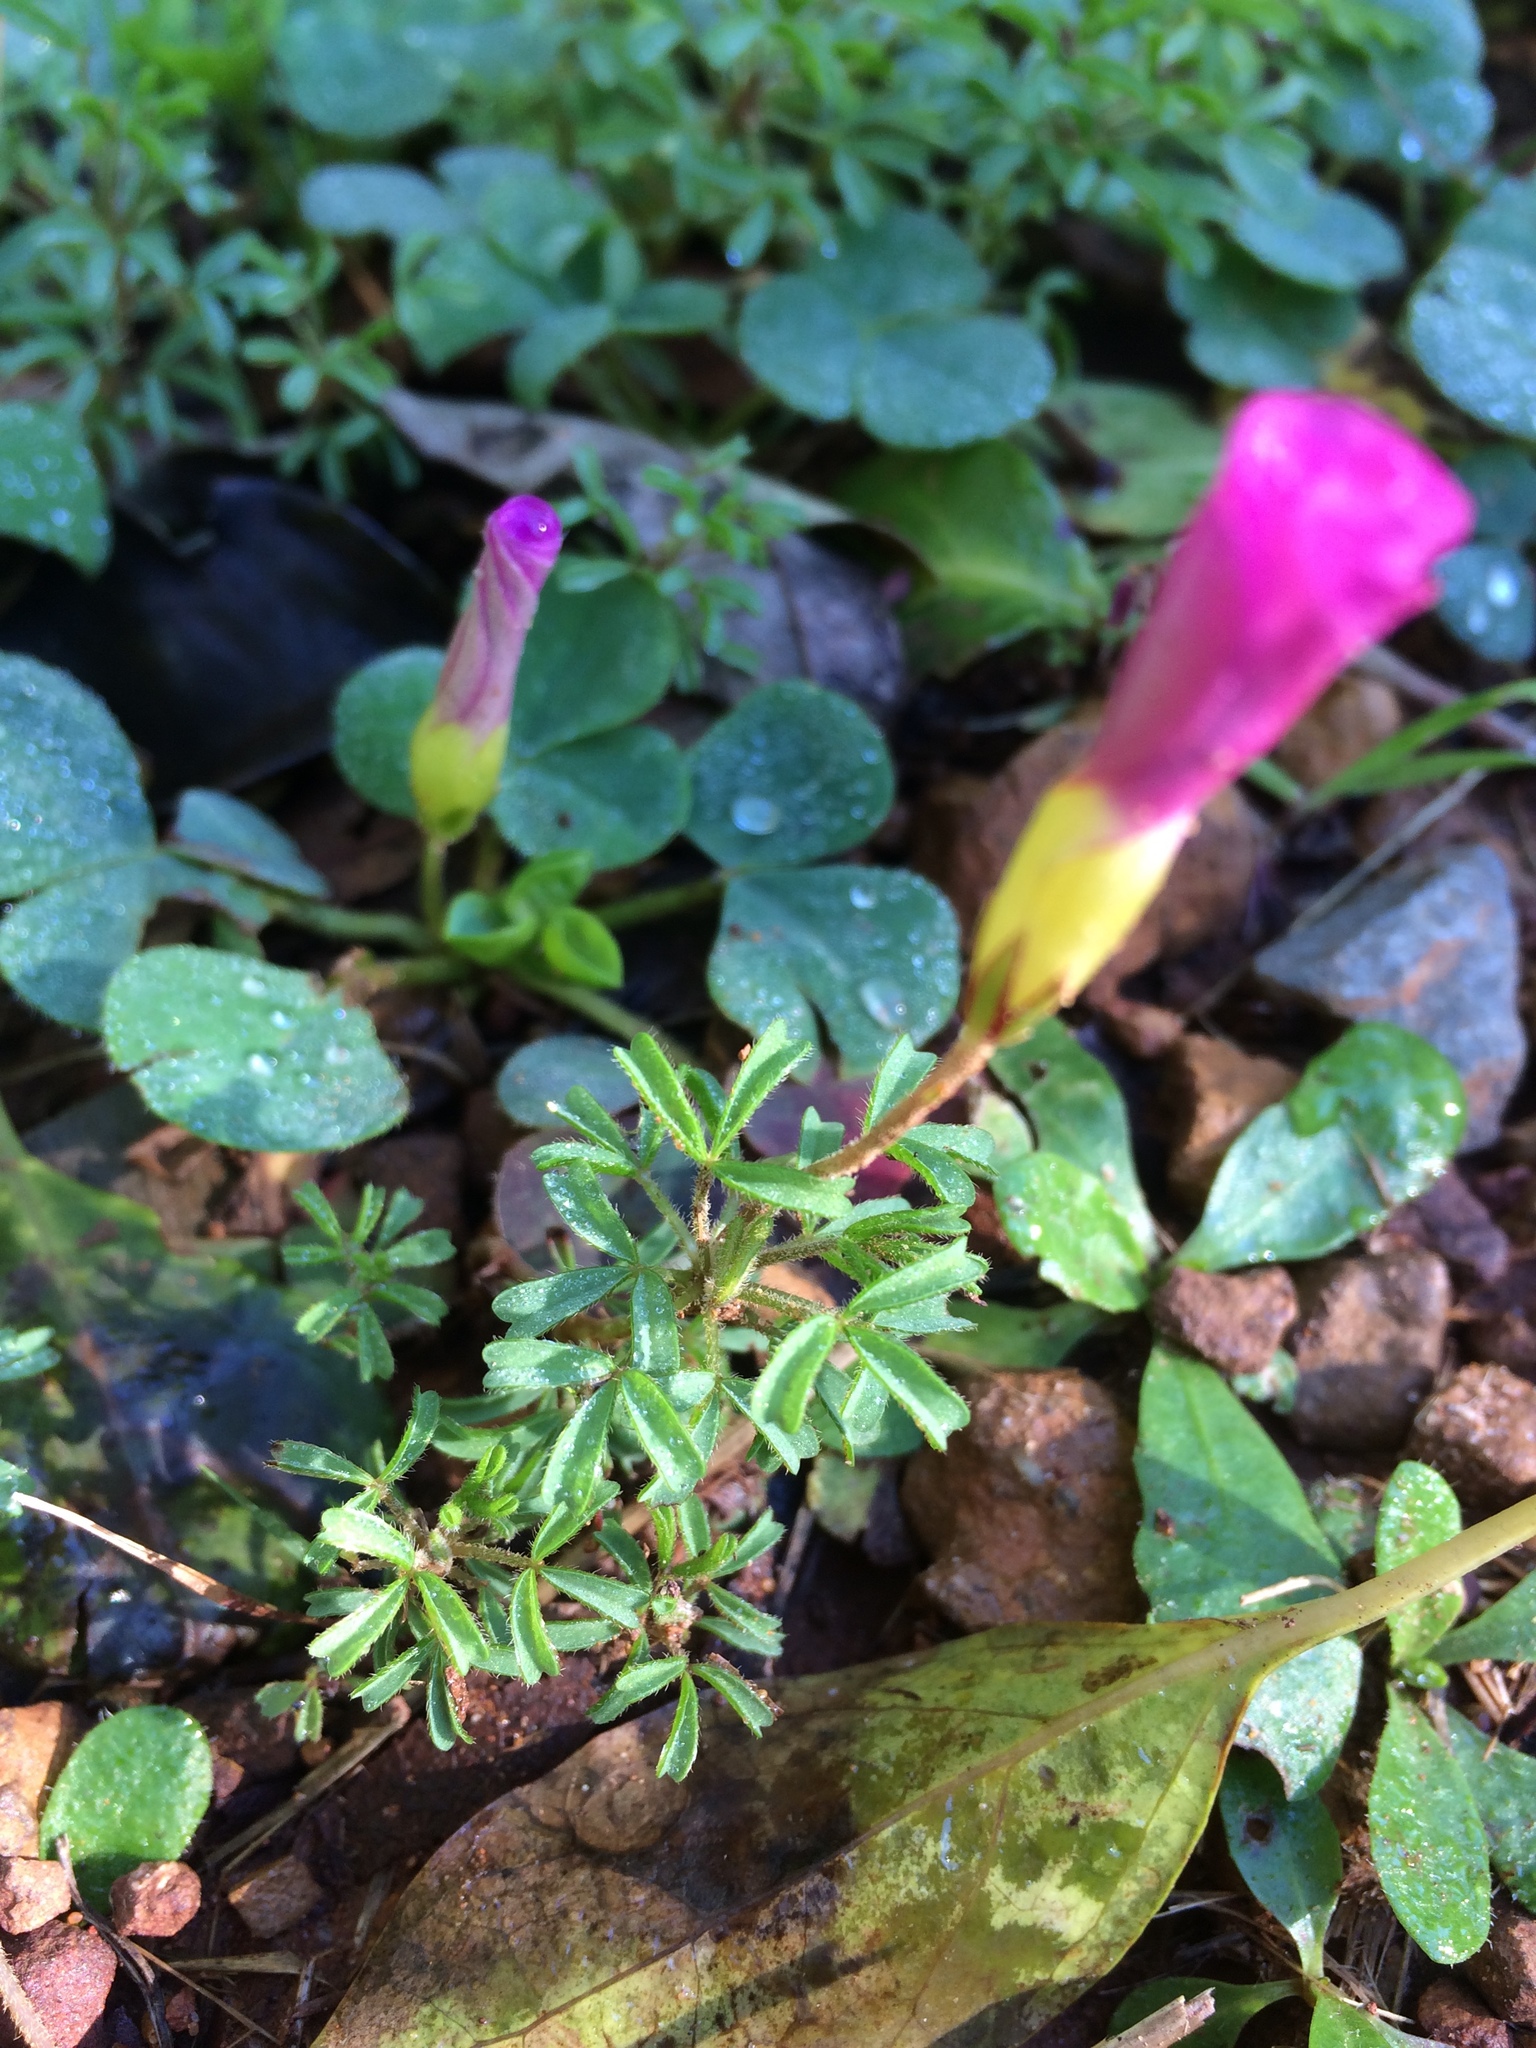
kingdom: Plantae
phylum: Tracheophyta
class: Magnoliopsida
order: Oxalidales
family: Oxalidaceae
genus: Oxalis
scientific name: Oxalis glabra
